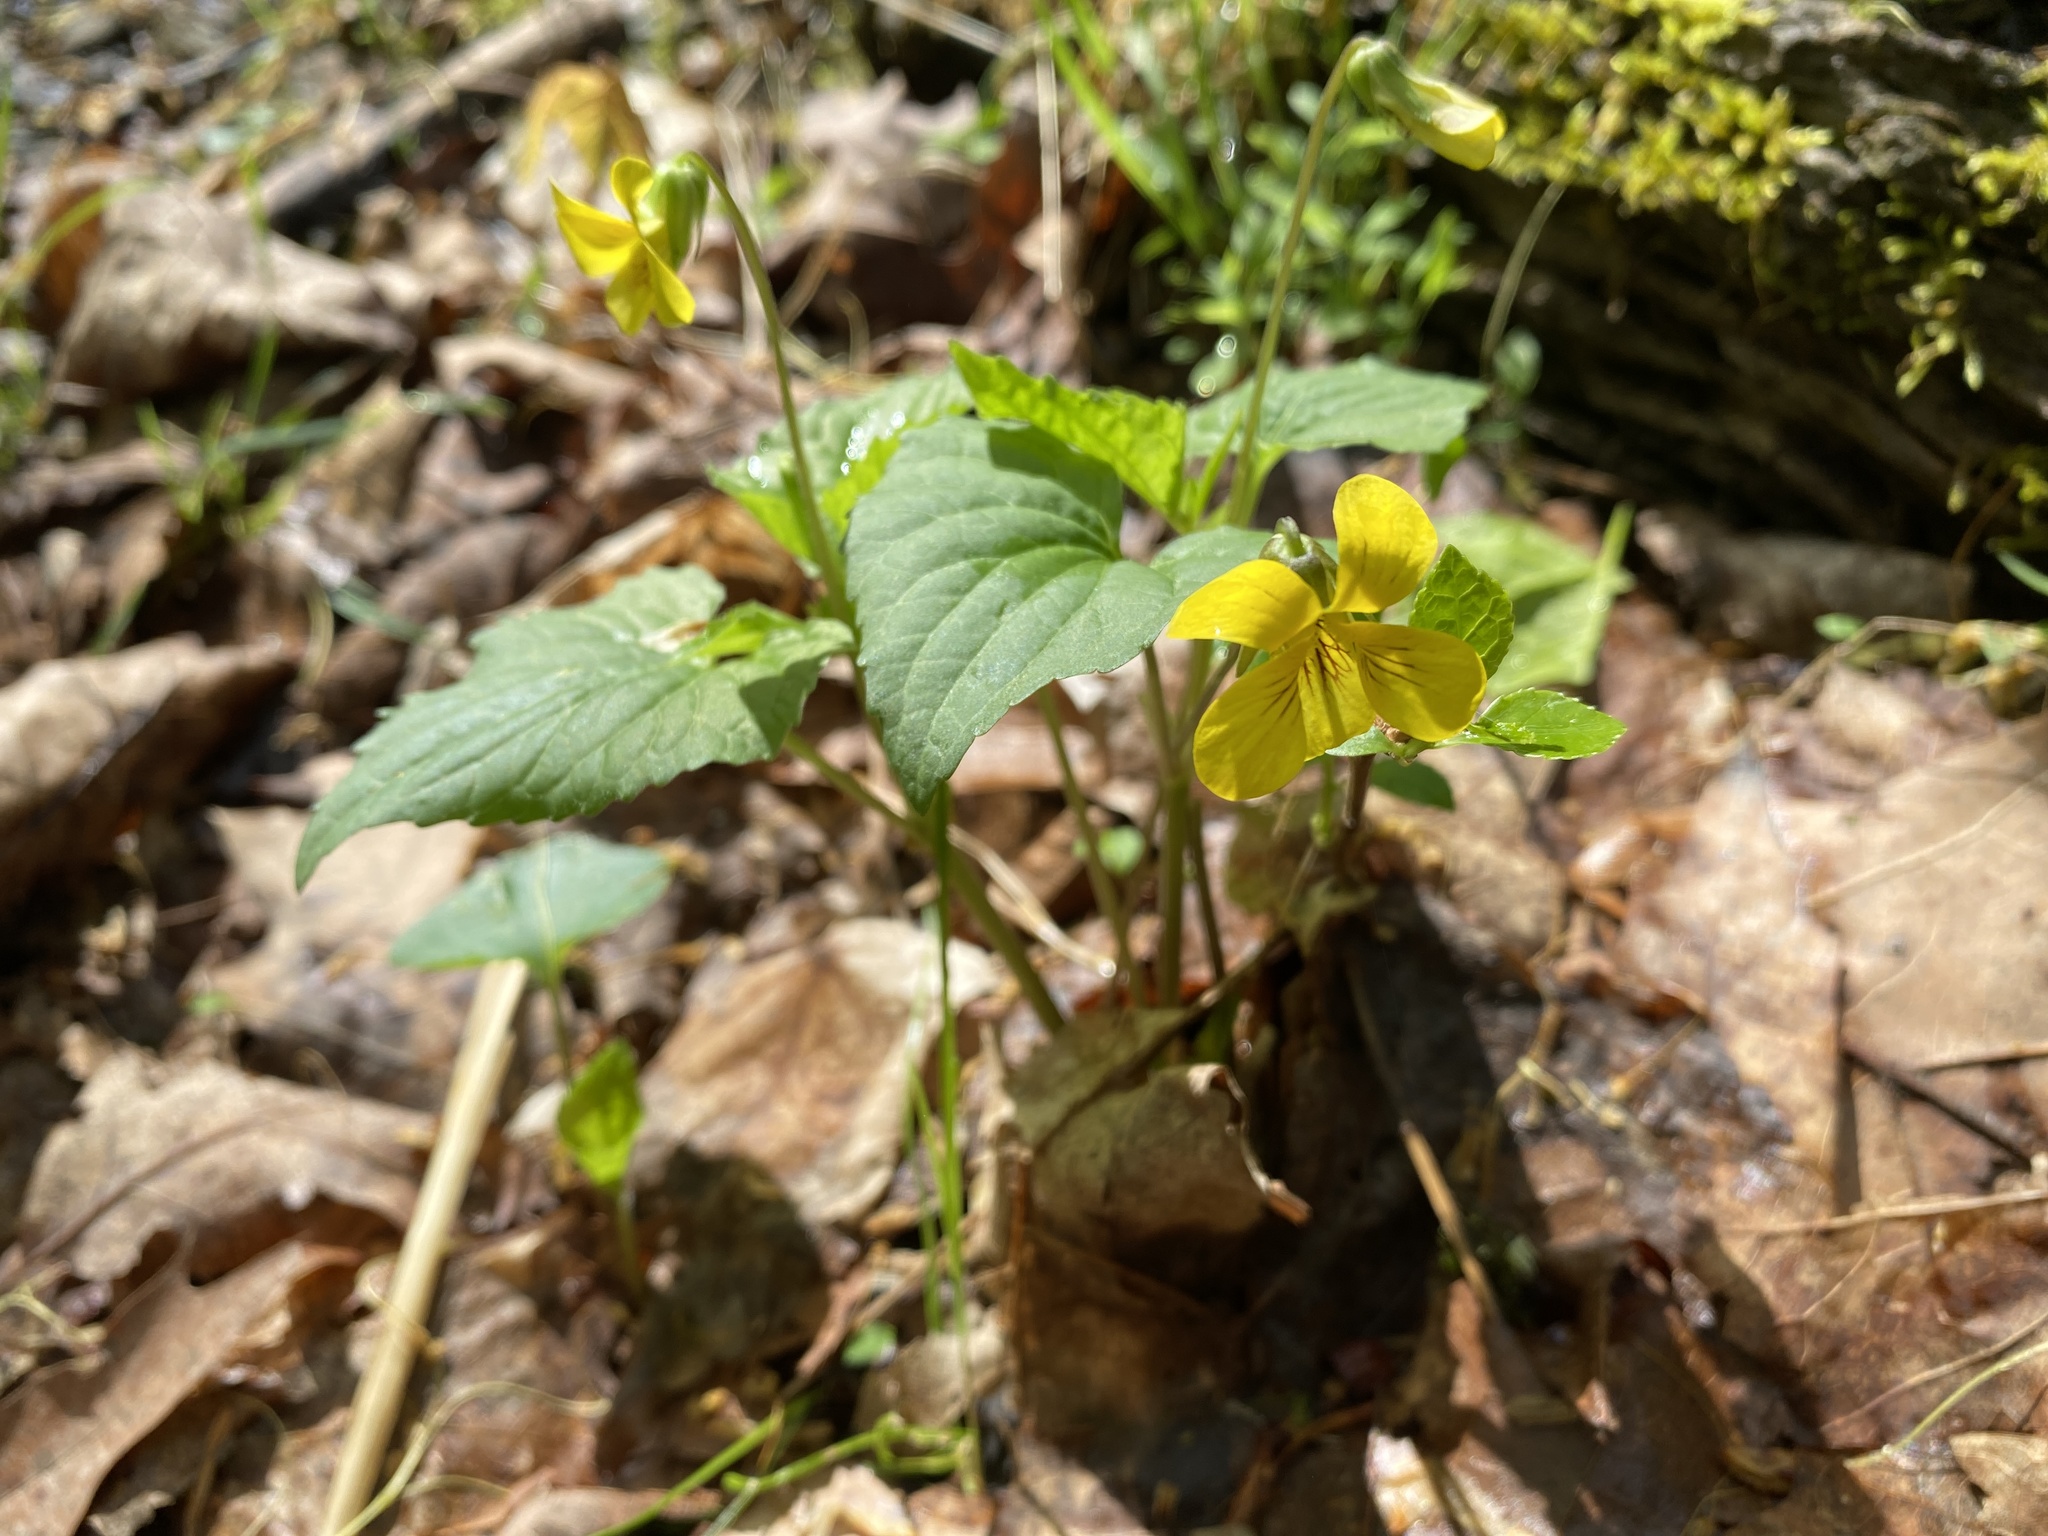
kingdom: Plantae
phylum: Tracheophyta
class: Magnoliopsida
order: Malpighiales
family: Violaceae
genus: Viola
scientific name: Viola eriocarpa
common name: Smooth yellow violet
